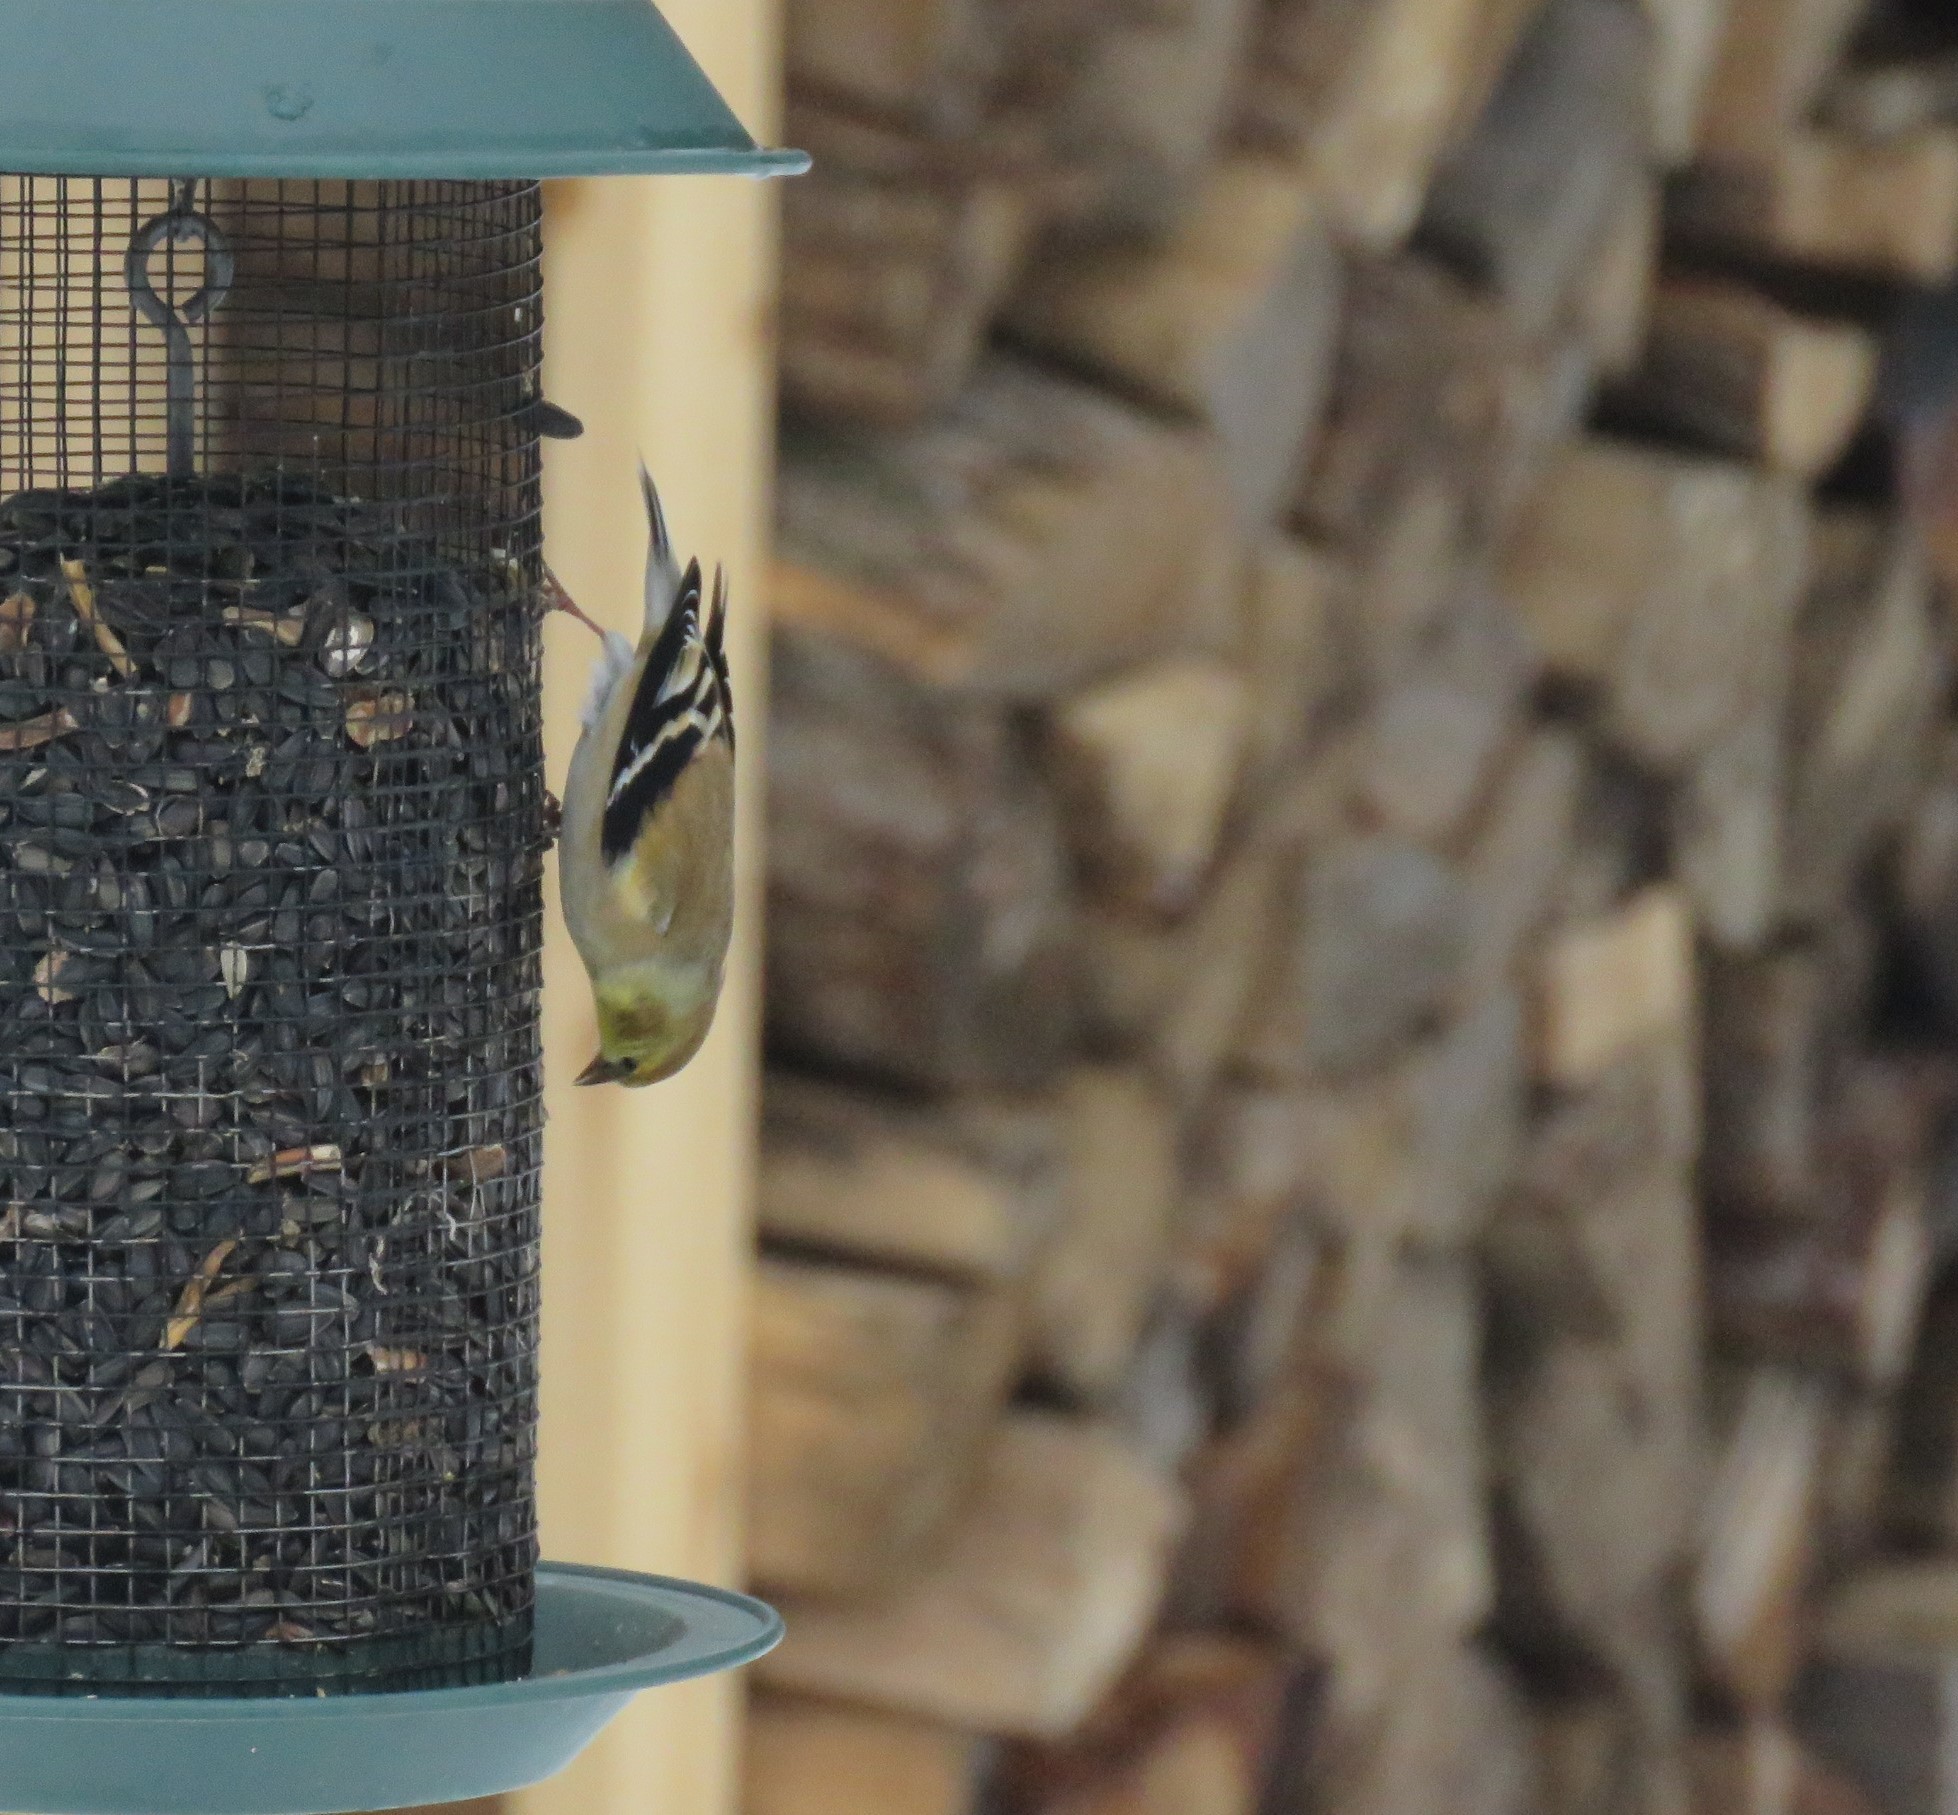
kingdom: Animalia
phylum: Chordata
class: Aves
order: Passeriformes
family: Fringillidae
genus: Spinus
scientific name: Spinus tristis
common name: American goldfinch
